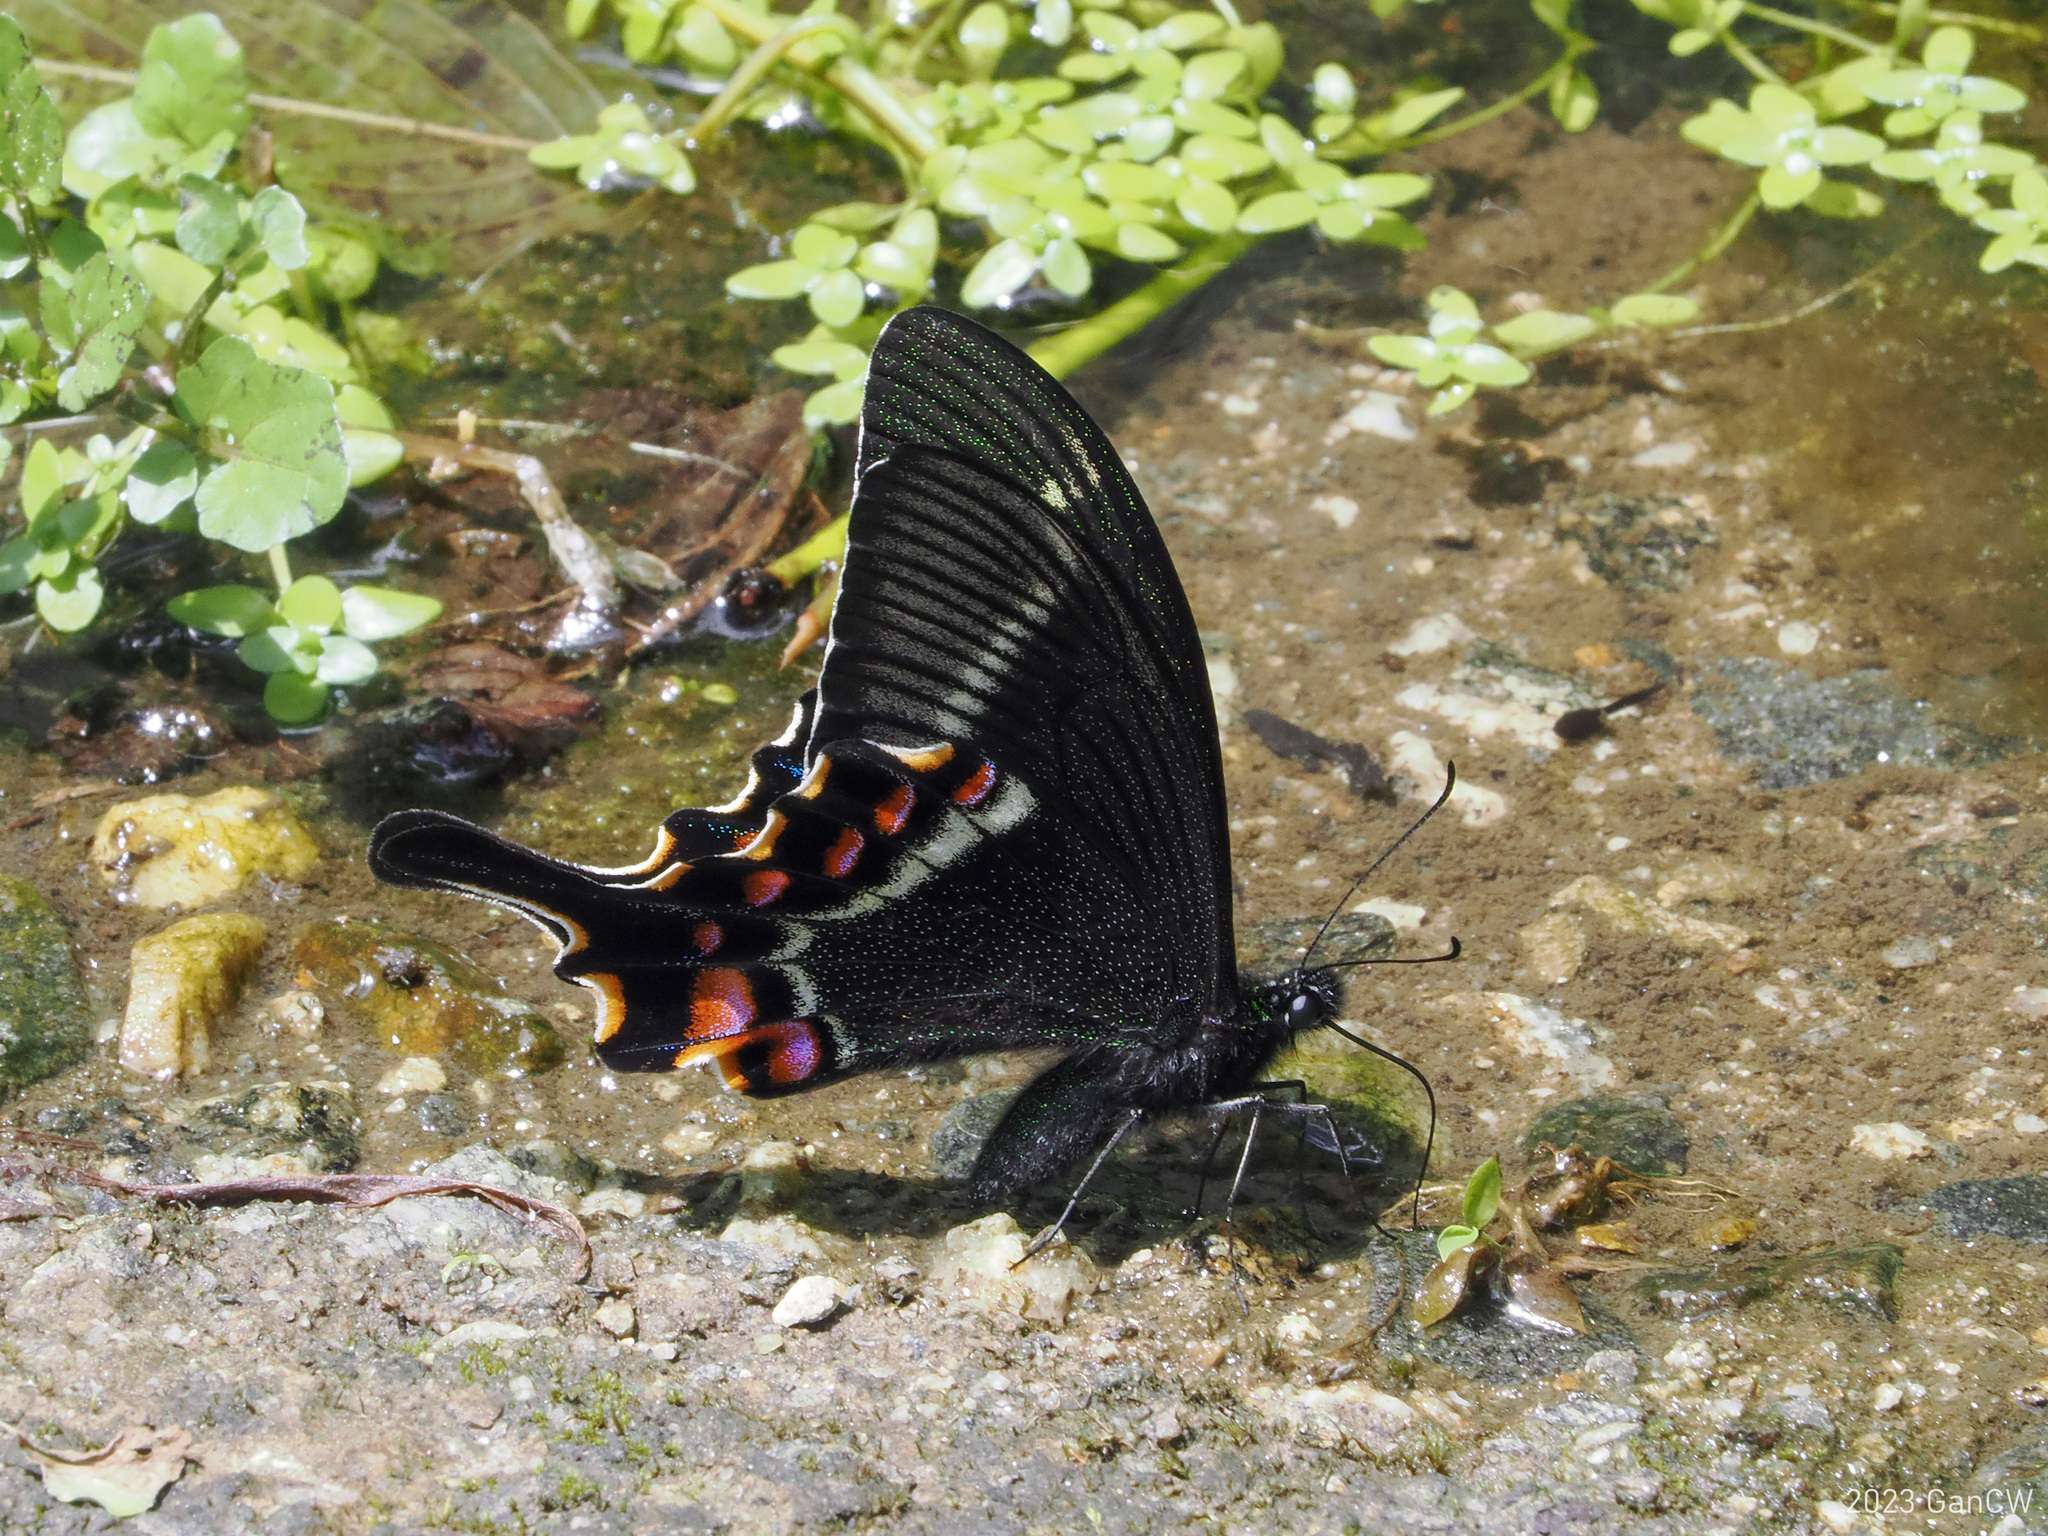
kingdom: Animalia
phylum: Arthropoda
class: Insecta
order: Lepidoptera
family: Papilionidae
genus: Papilio
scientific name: Papilio krishna
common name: Krishna peacock
